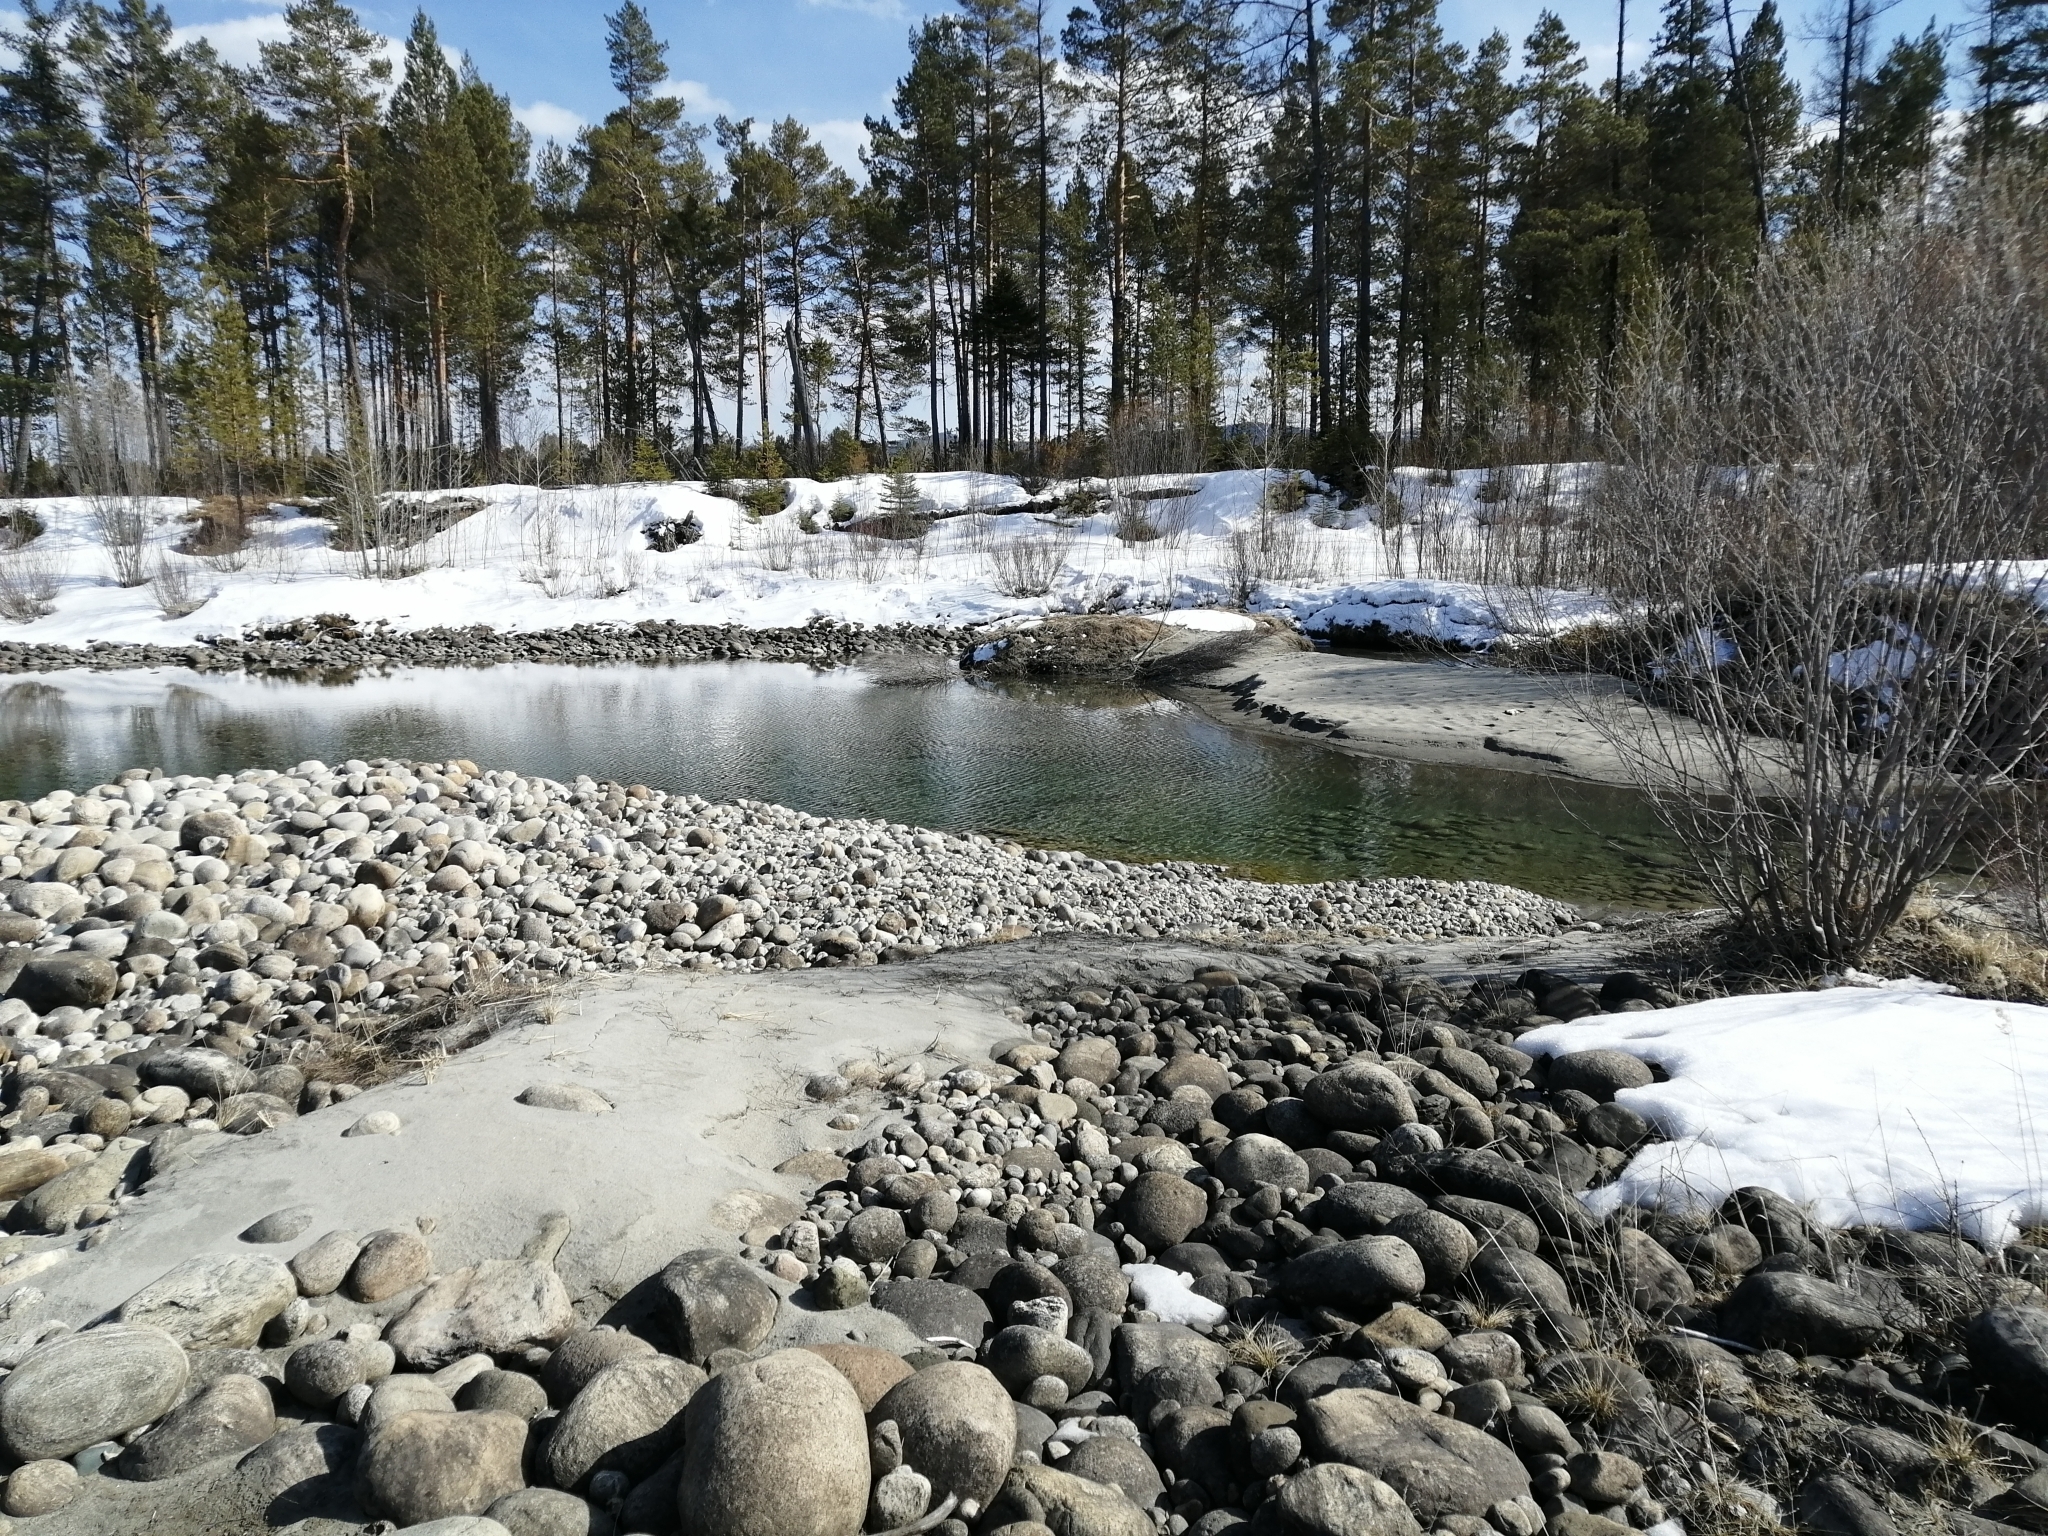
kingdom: Plantae
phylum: Tracheophyta
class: Pinopsida
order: Pinales
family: Pinaceae
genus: Pinus
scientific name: Pinus sylvestris
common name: Scots pine
